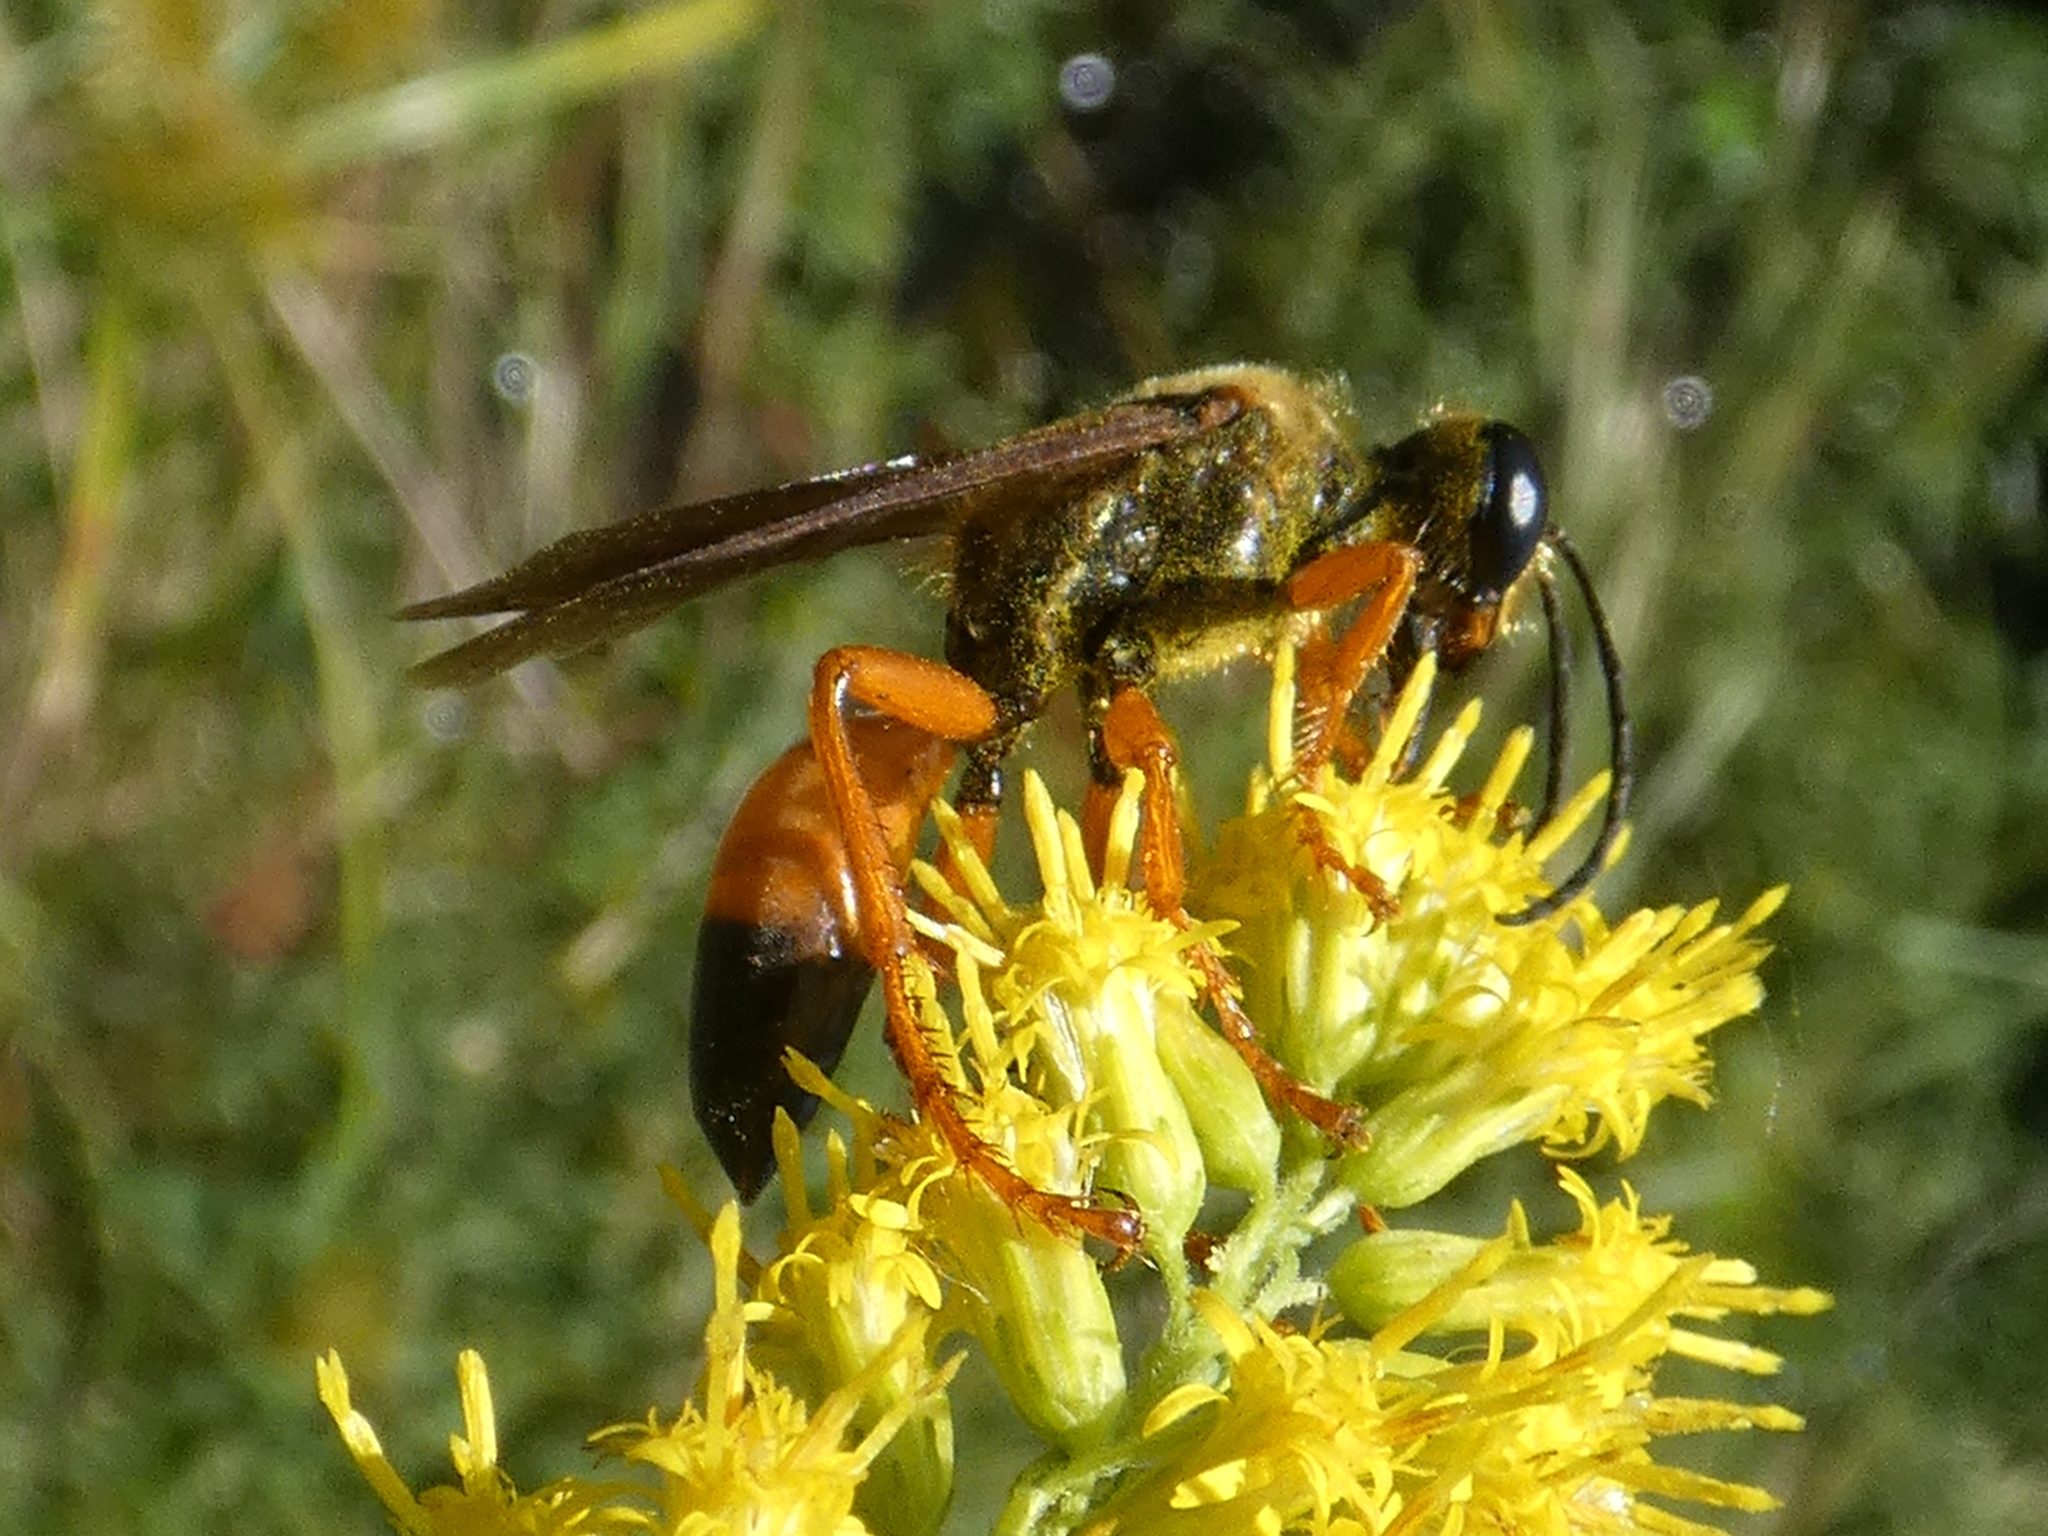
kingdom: Animalia
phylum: Arthropoda
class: Insecta
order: Hymenoptera
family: Sphecidae
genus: Sphex
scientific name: Sphex ichneumoneus
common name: Great golden digger wasp
